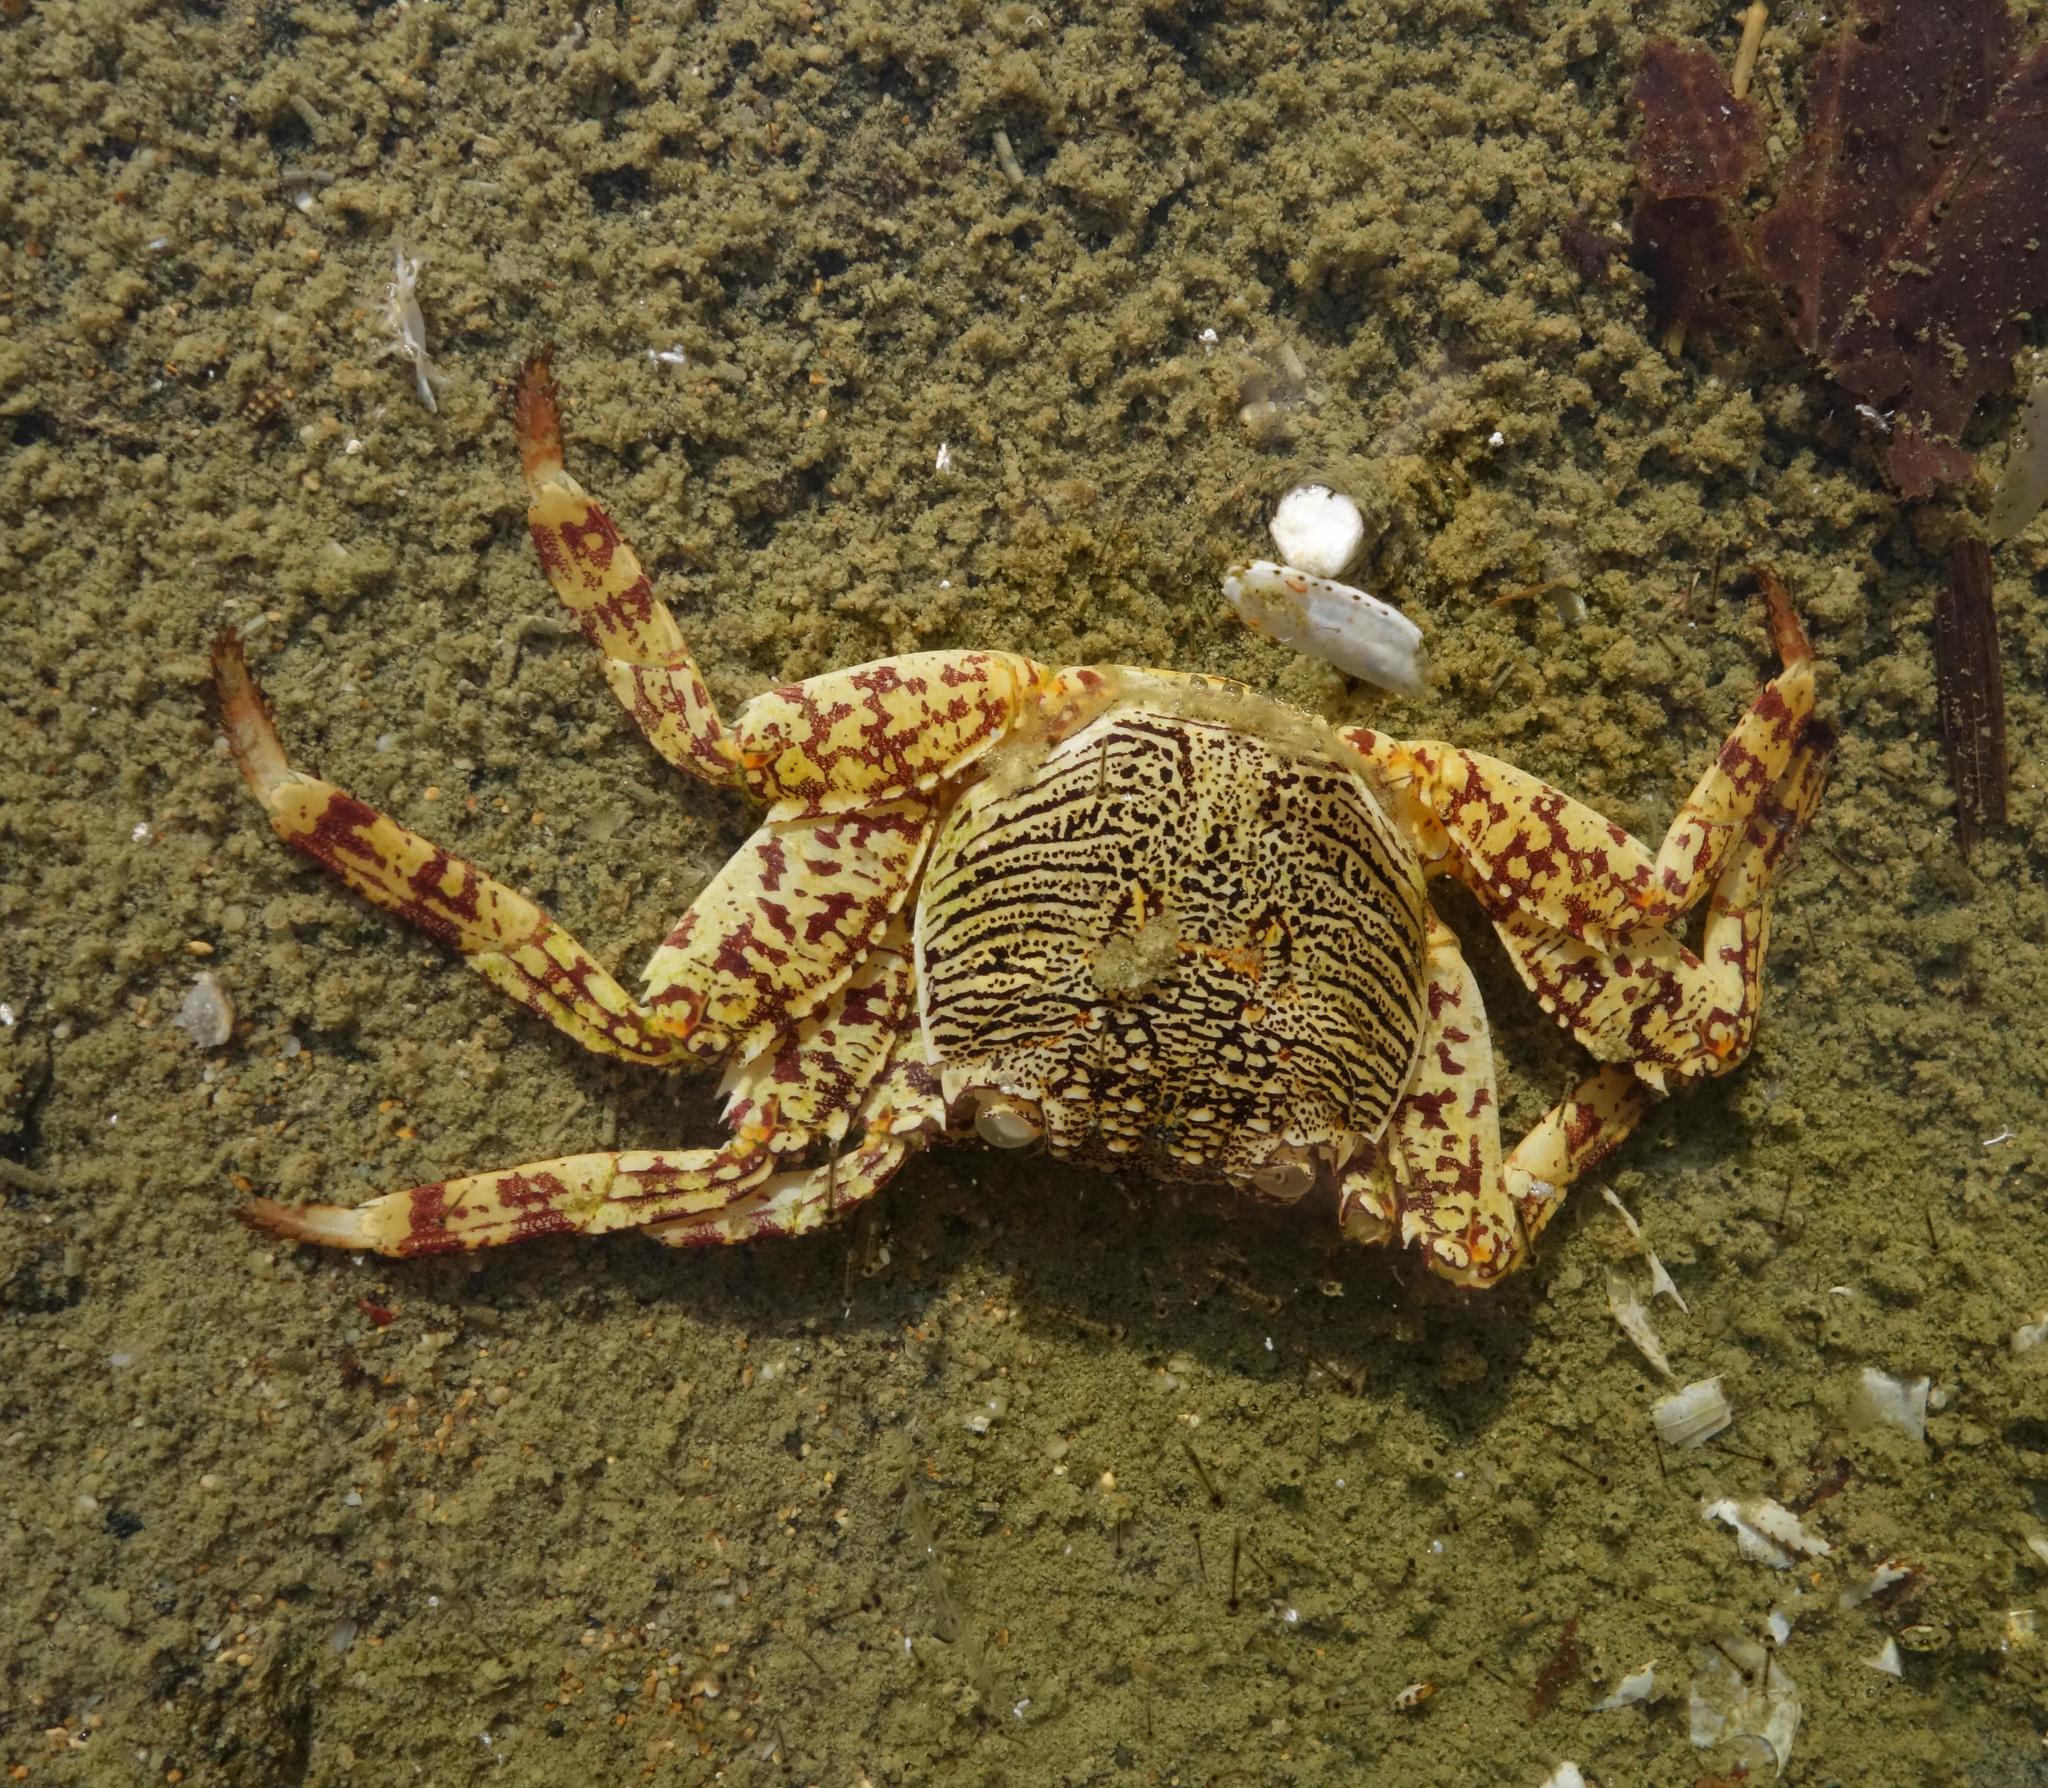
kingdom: Animalia
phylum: Arthropoda
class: Malacostraca
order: Decapoda
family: Grapsidae
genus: Grapsus
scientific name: Grapsus albolineatus
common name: Mottled lightfoot crab
